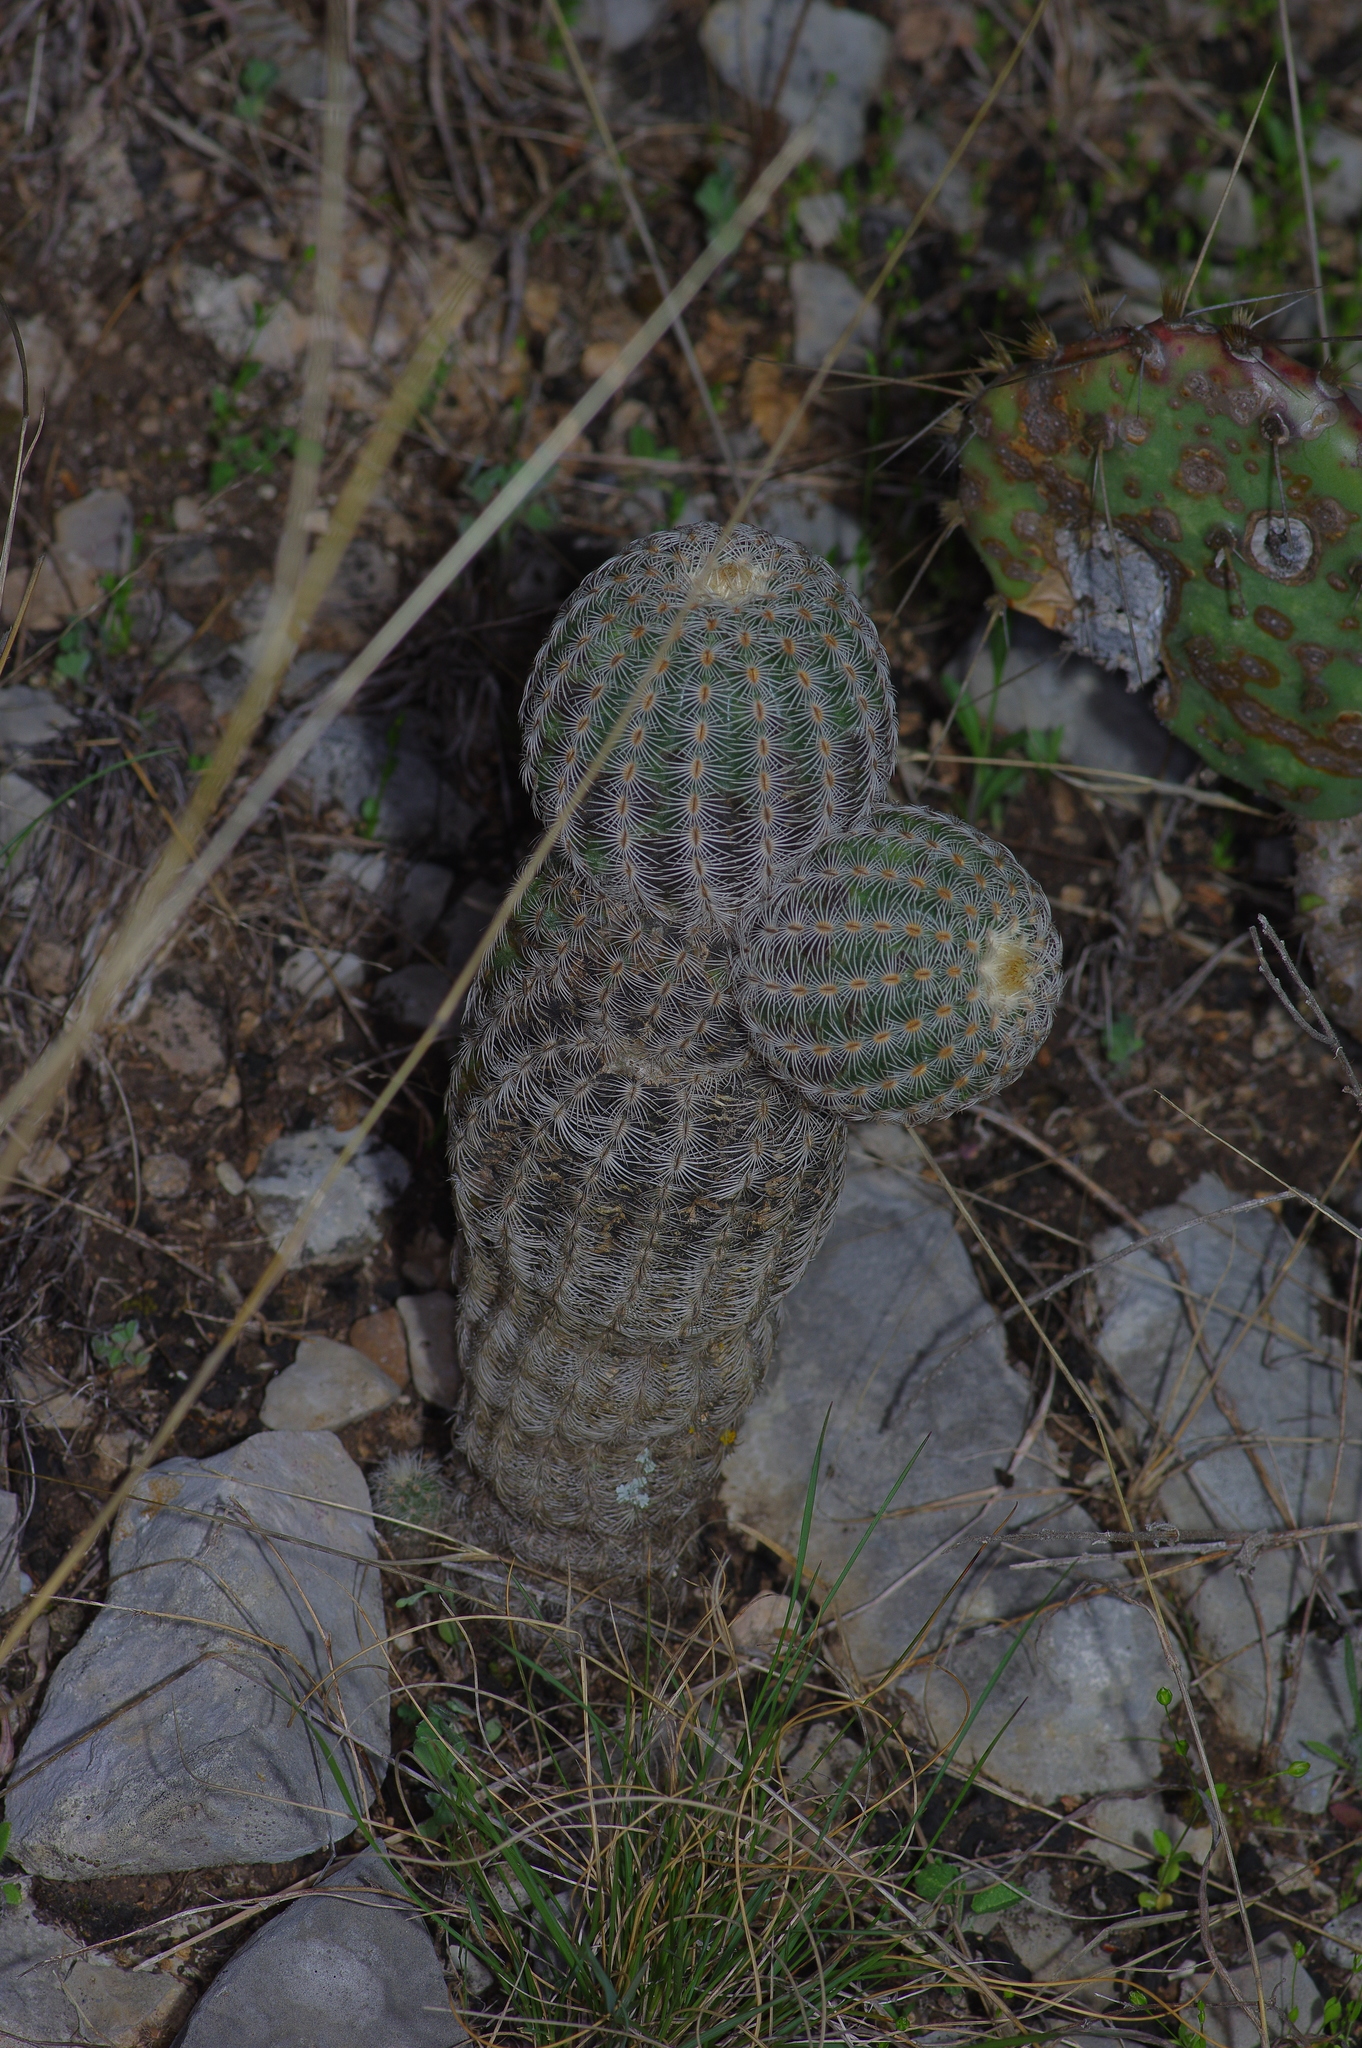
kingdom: Plantae
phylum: Tracheophyta
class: Magnoliopsida
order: Caryophyllales
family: Cactaceae
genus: Echinocereus
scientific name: Echinocereus reichenbachii
